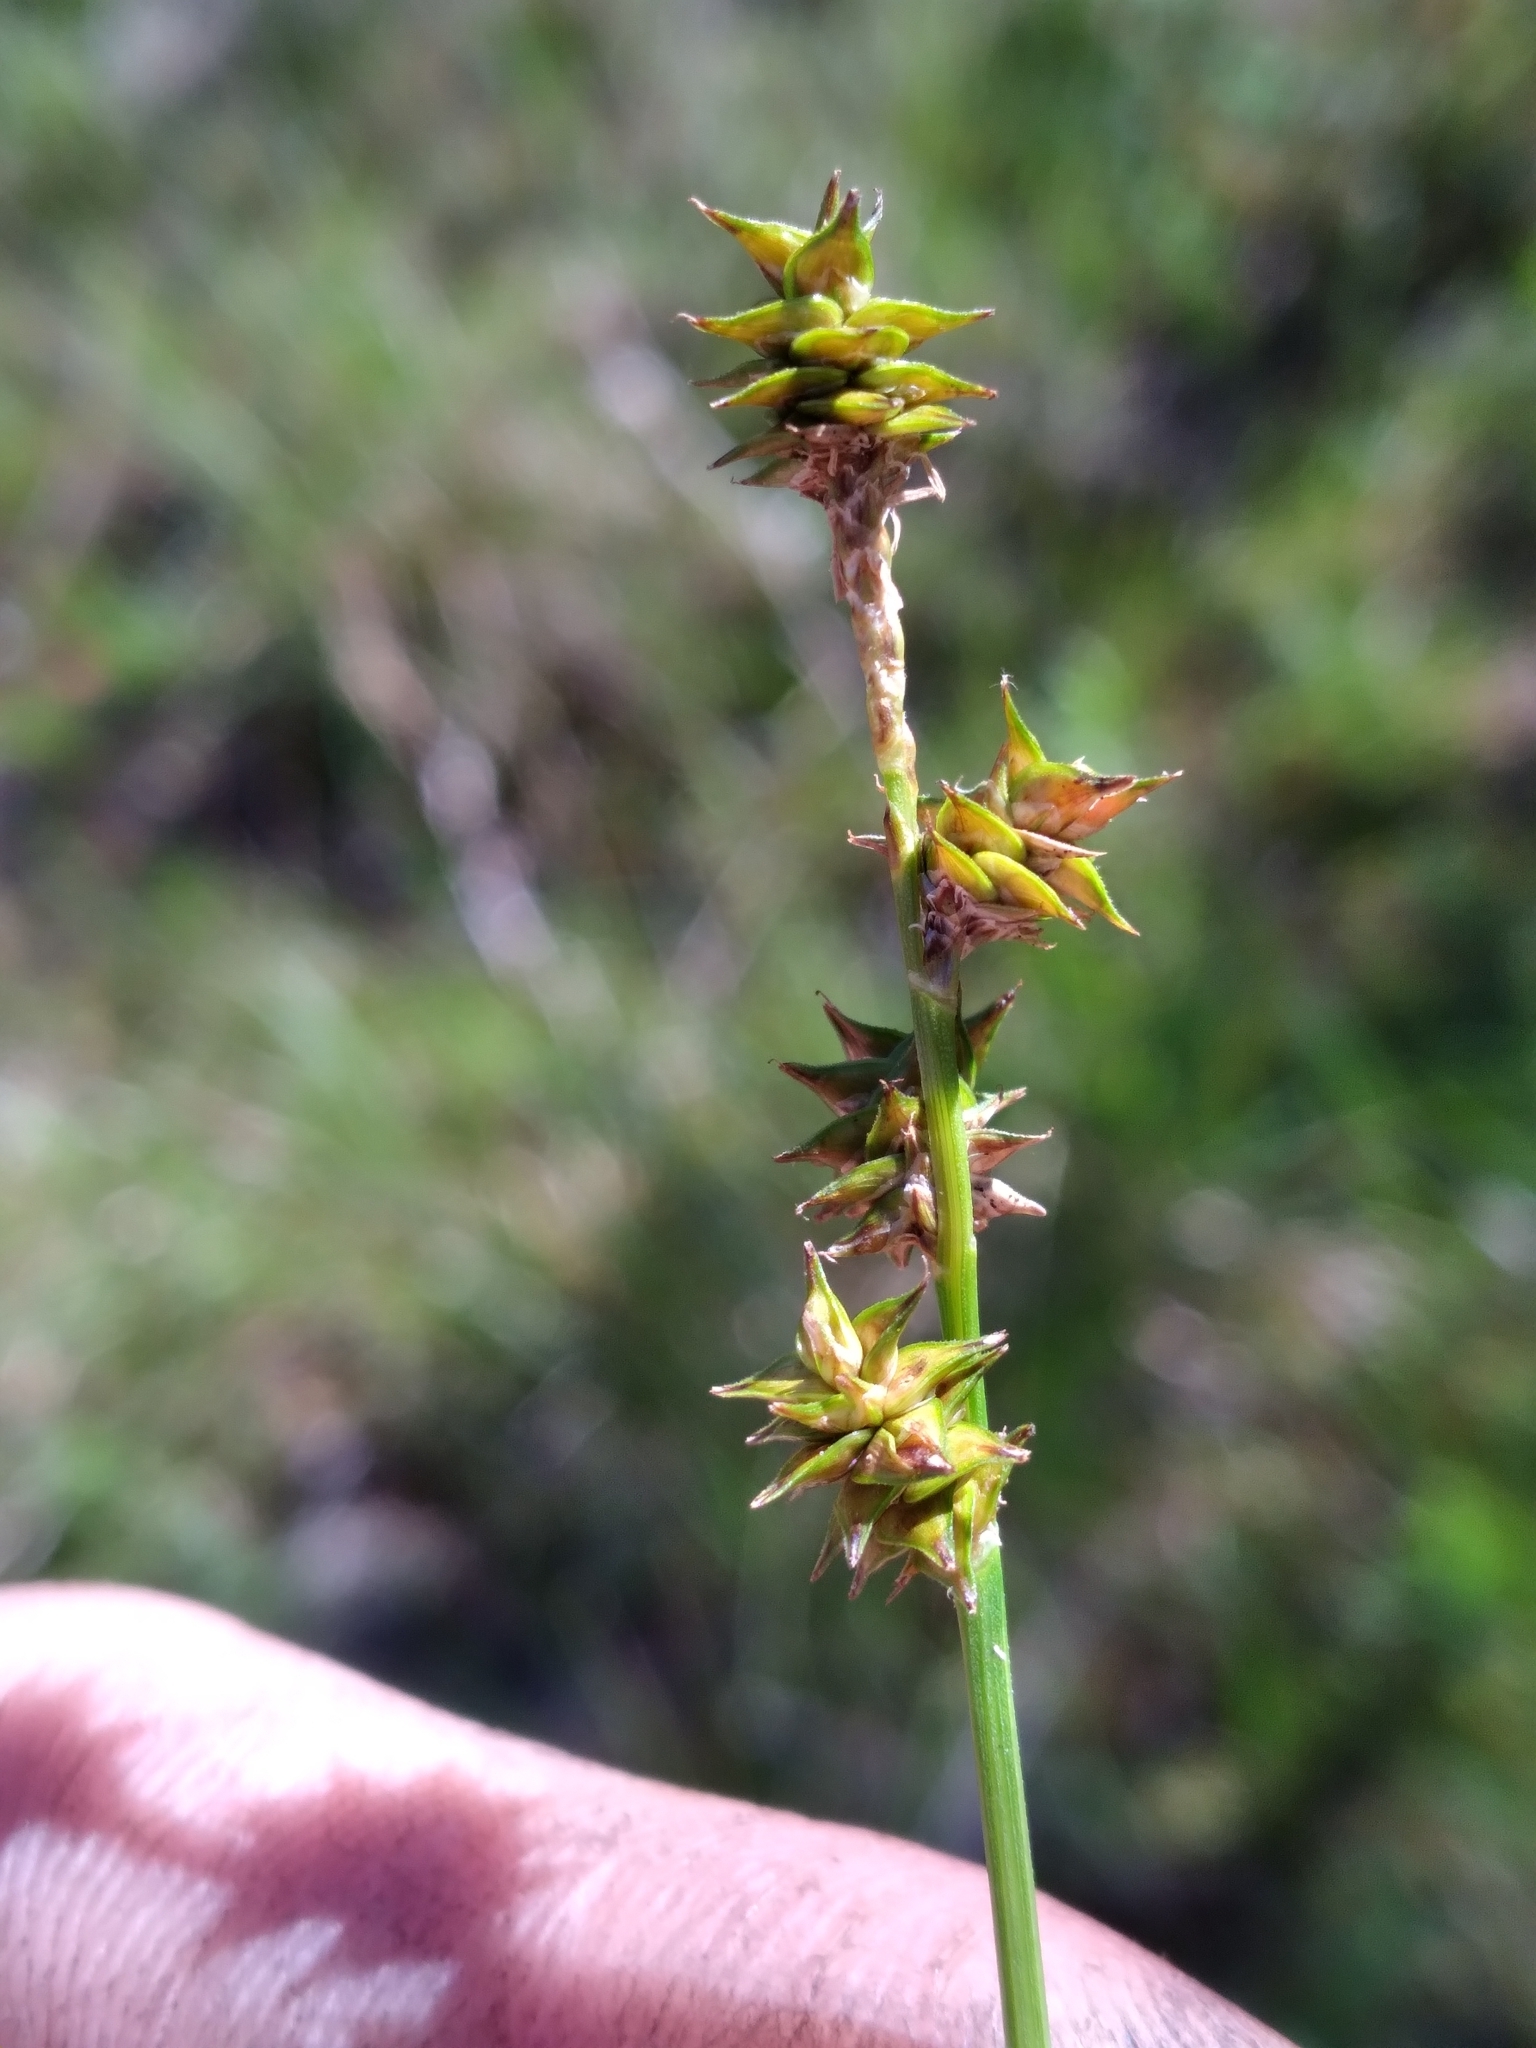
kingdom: Plantae
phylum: Tracheophyta
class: Liliopsida
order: Poales
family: Cyperaceae
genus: Carex
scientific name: Carex atlantica
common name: Atlantic sedge
